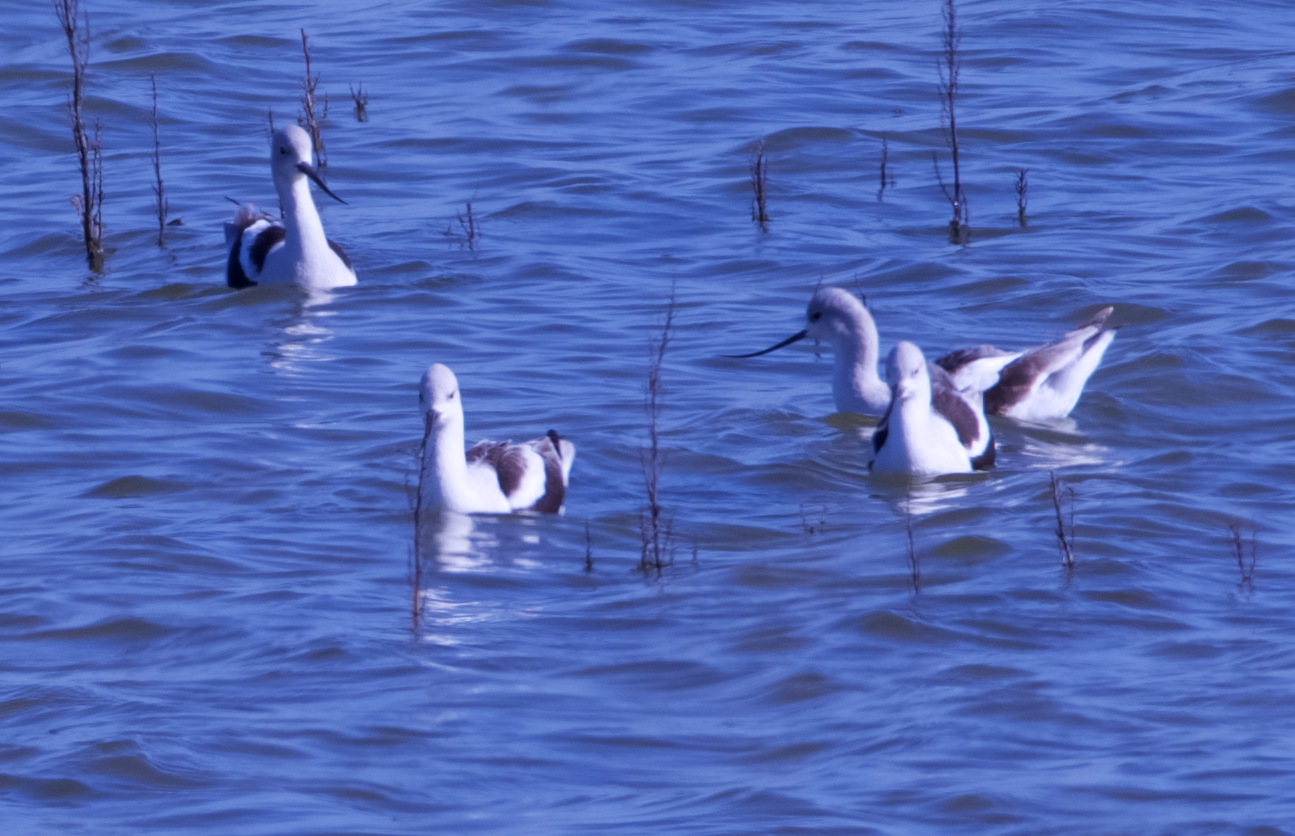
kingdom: Animalia
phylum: Chordata
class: Aves
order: Charadriiformes
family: Recurvirostridae
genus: Recurvirostra
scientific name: Recurvirostra americana
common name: American avocet
